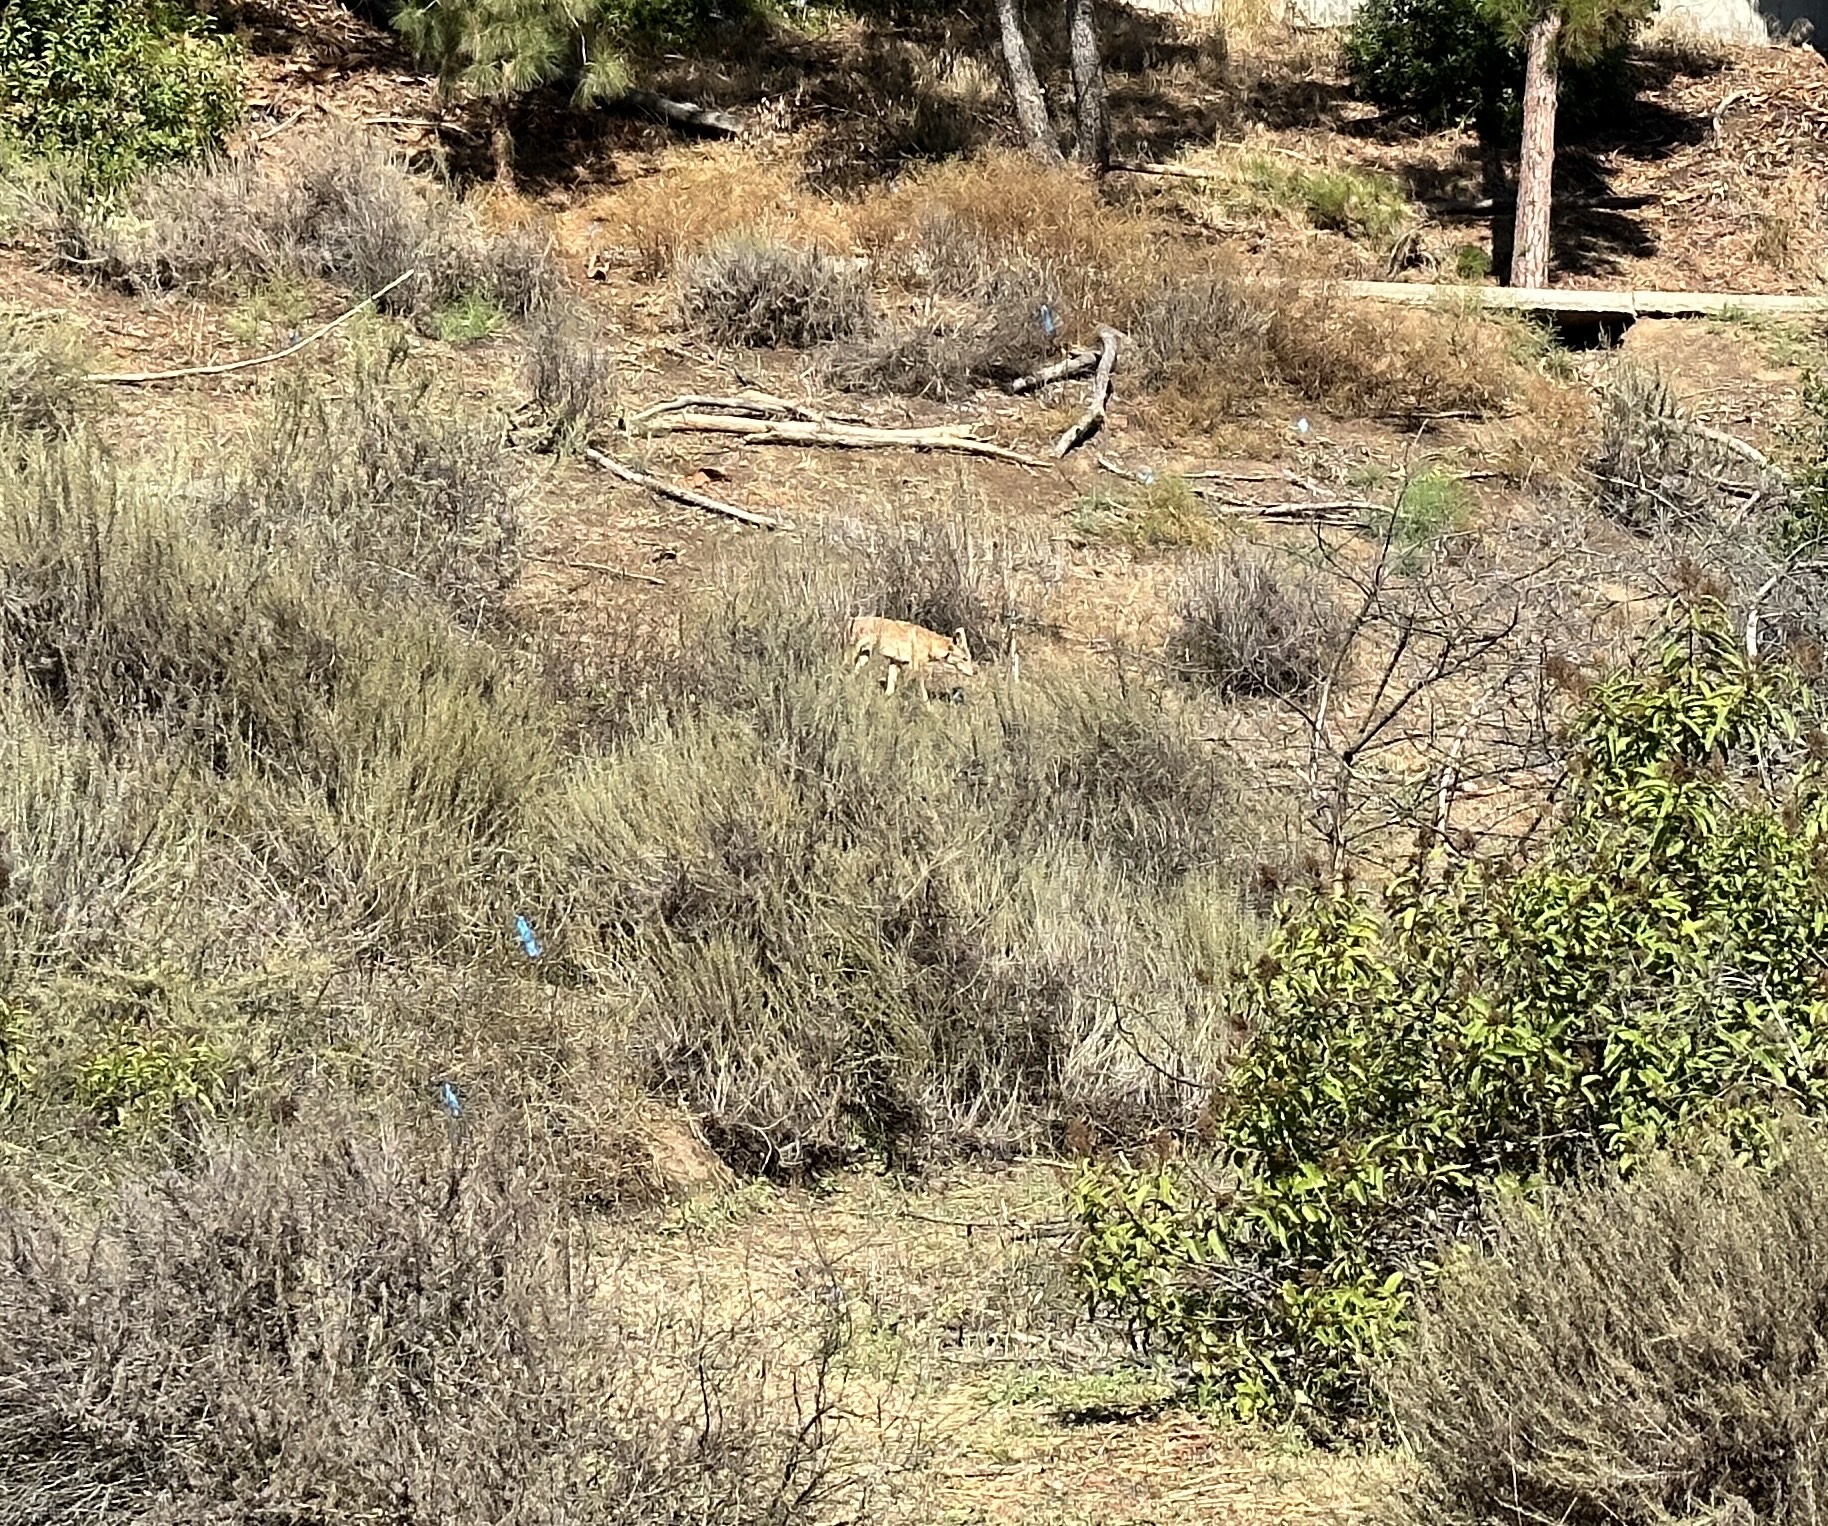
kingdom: Animalia
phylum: Chordata
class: Mammalia
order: Carnivora
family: Canidae
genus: Canis
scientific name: Canis latrans
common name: Coyote
